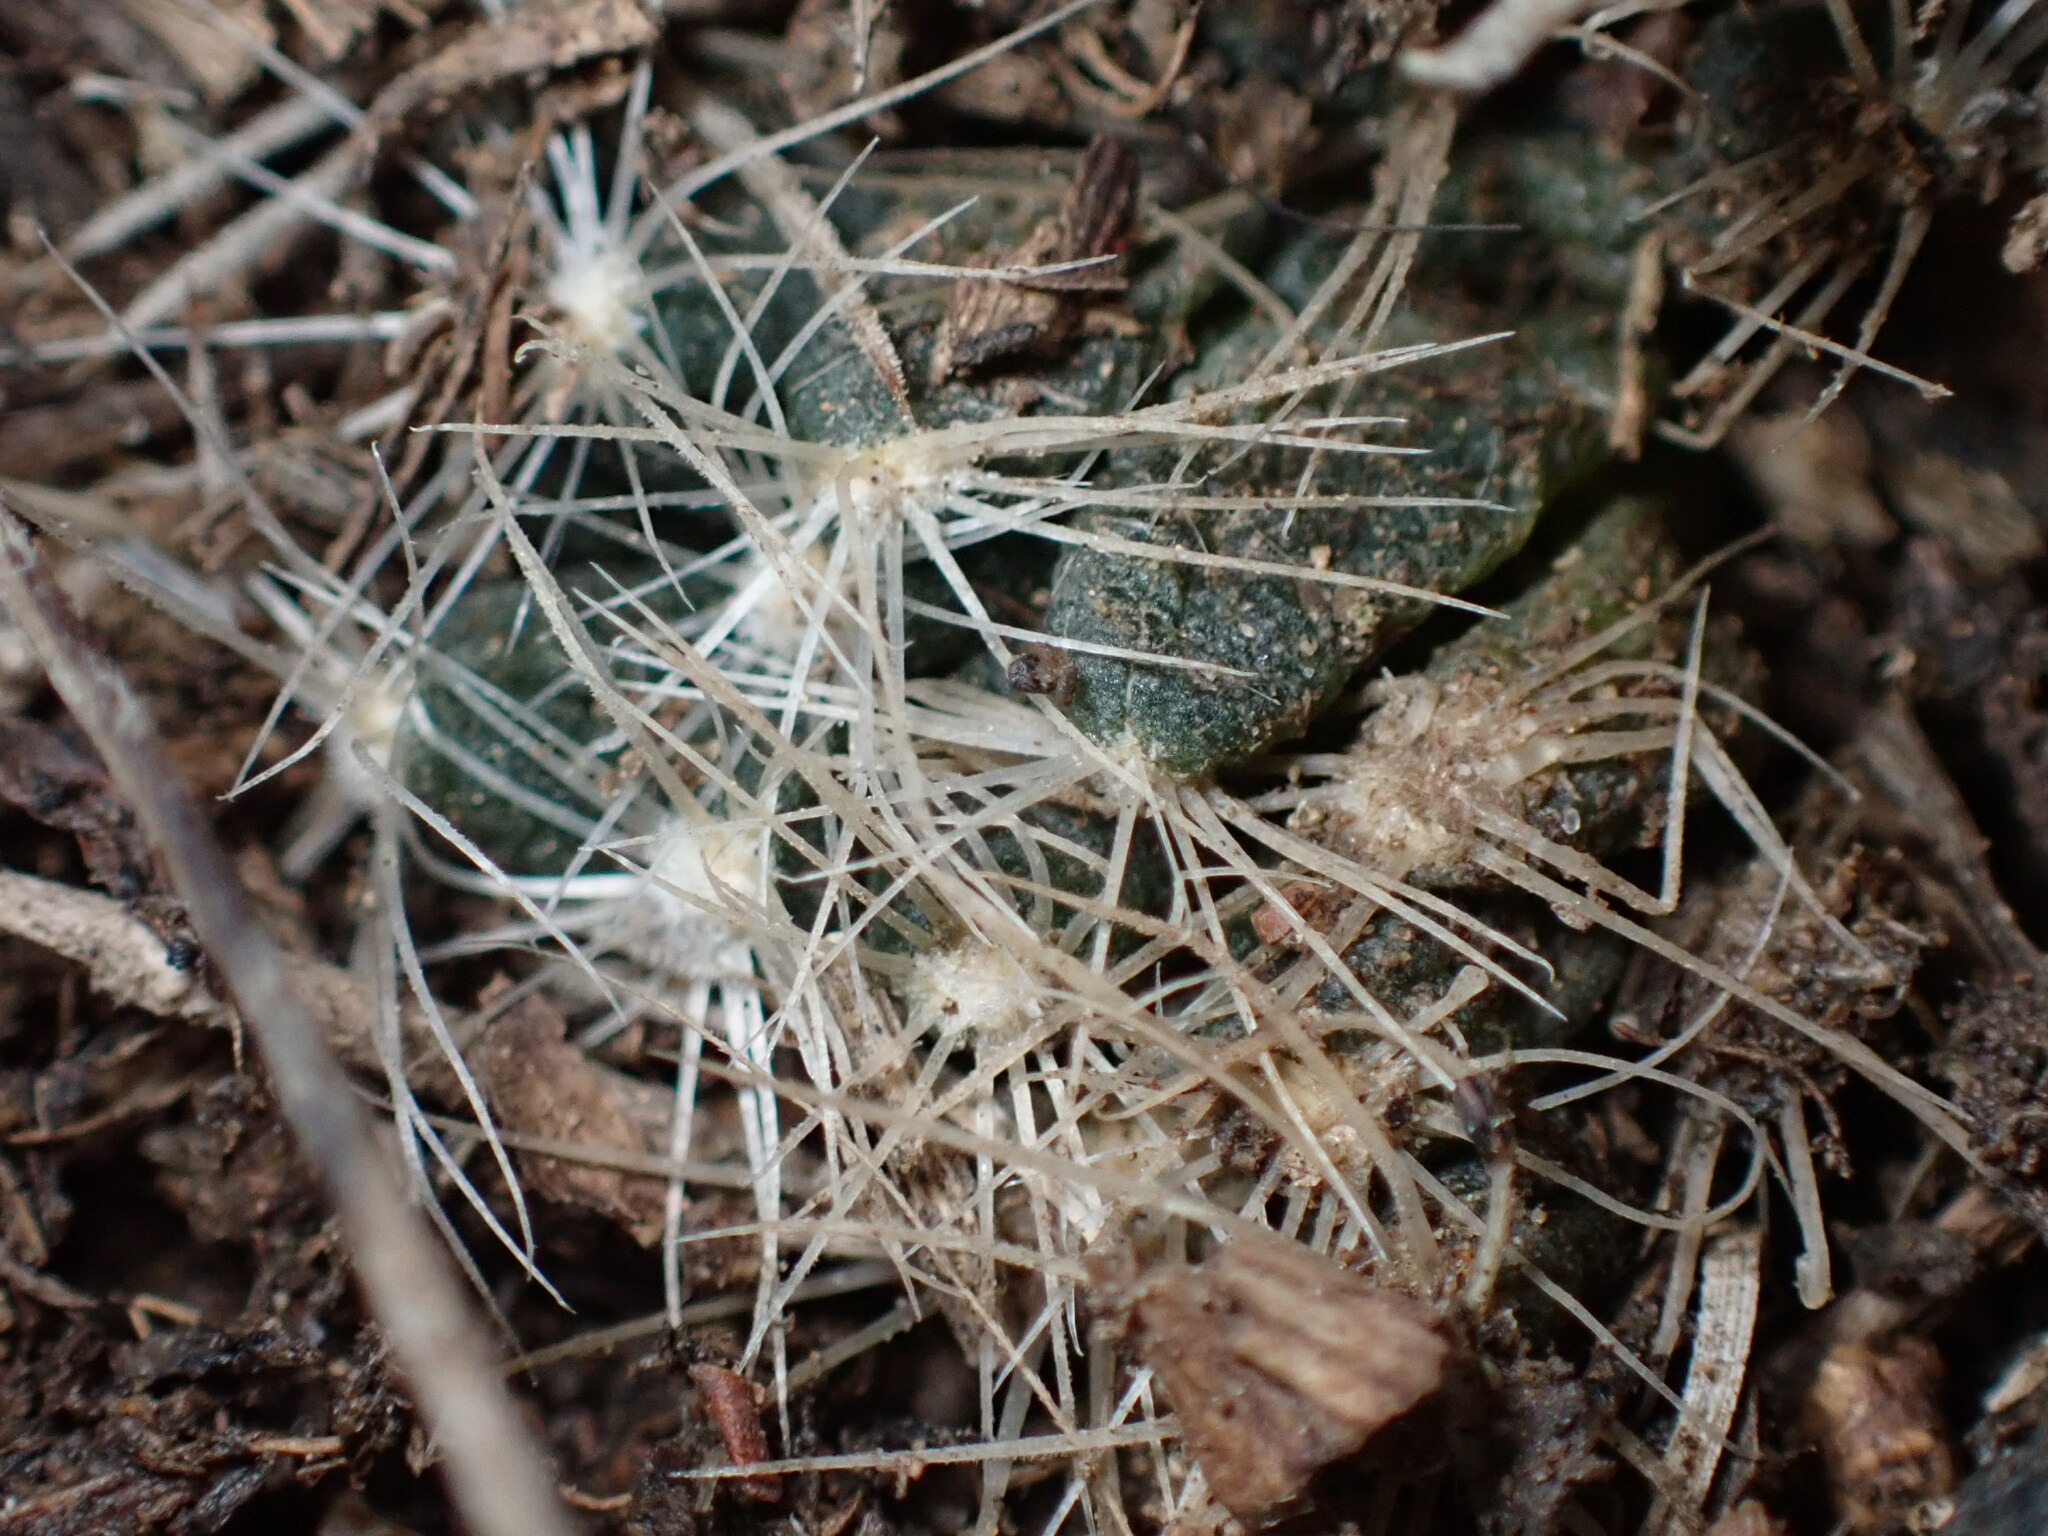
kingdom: Plantae
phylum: Tracheophyta
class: Magnoliopsida
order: Caryophyllales
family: Cactaceae
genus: Pelecyphora
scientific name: Pelecyphora missouriensis
